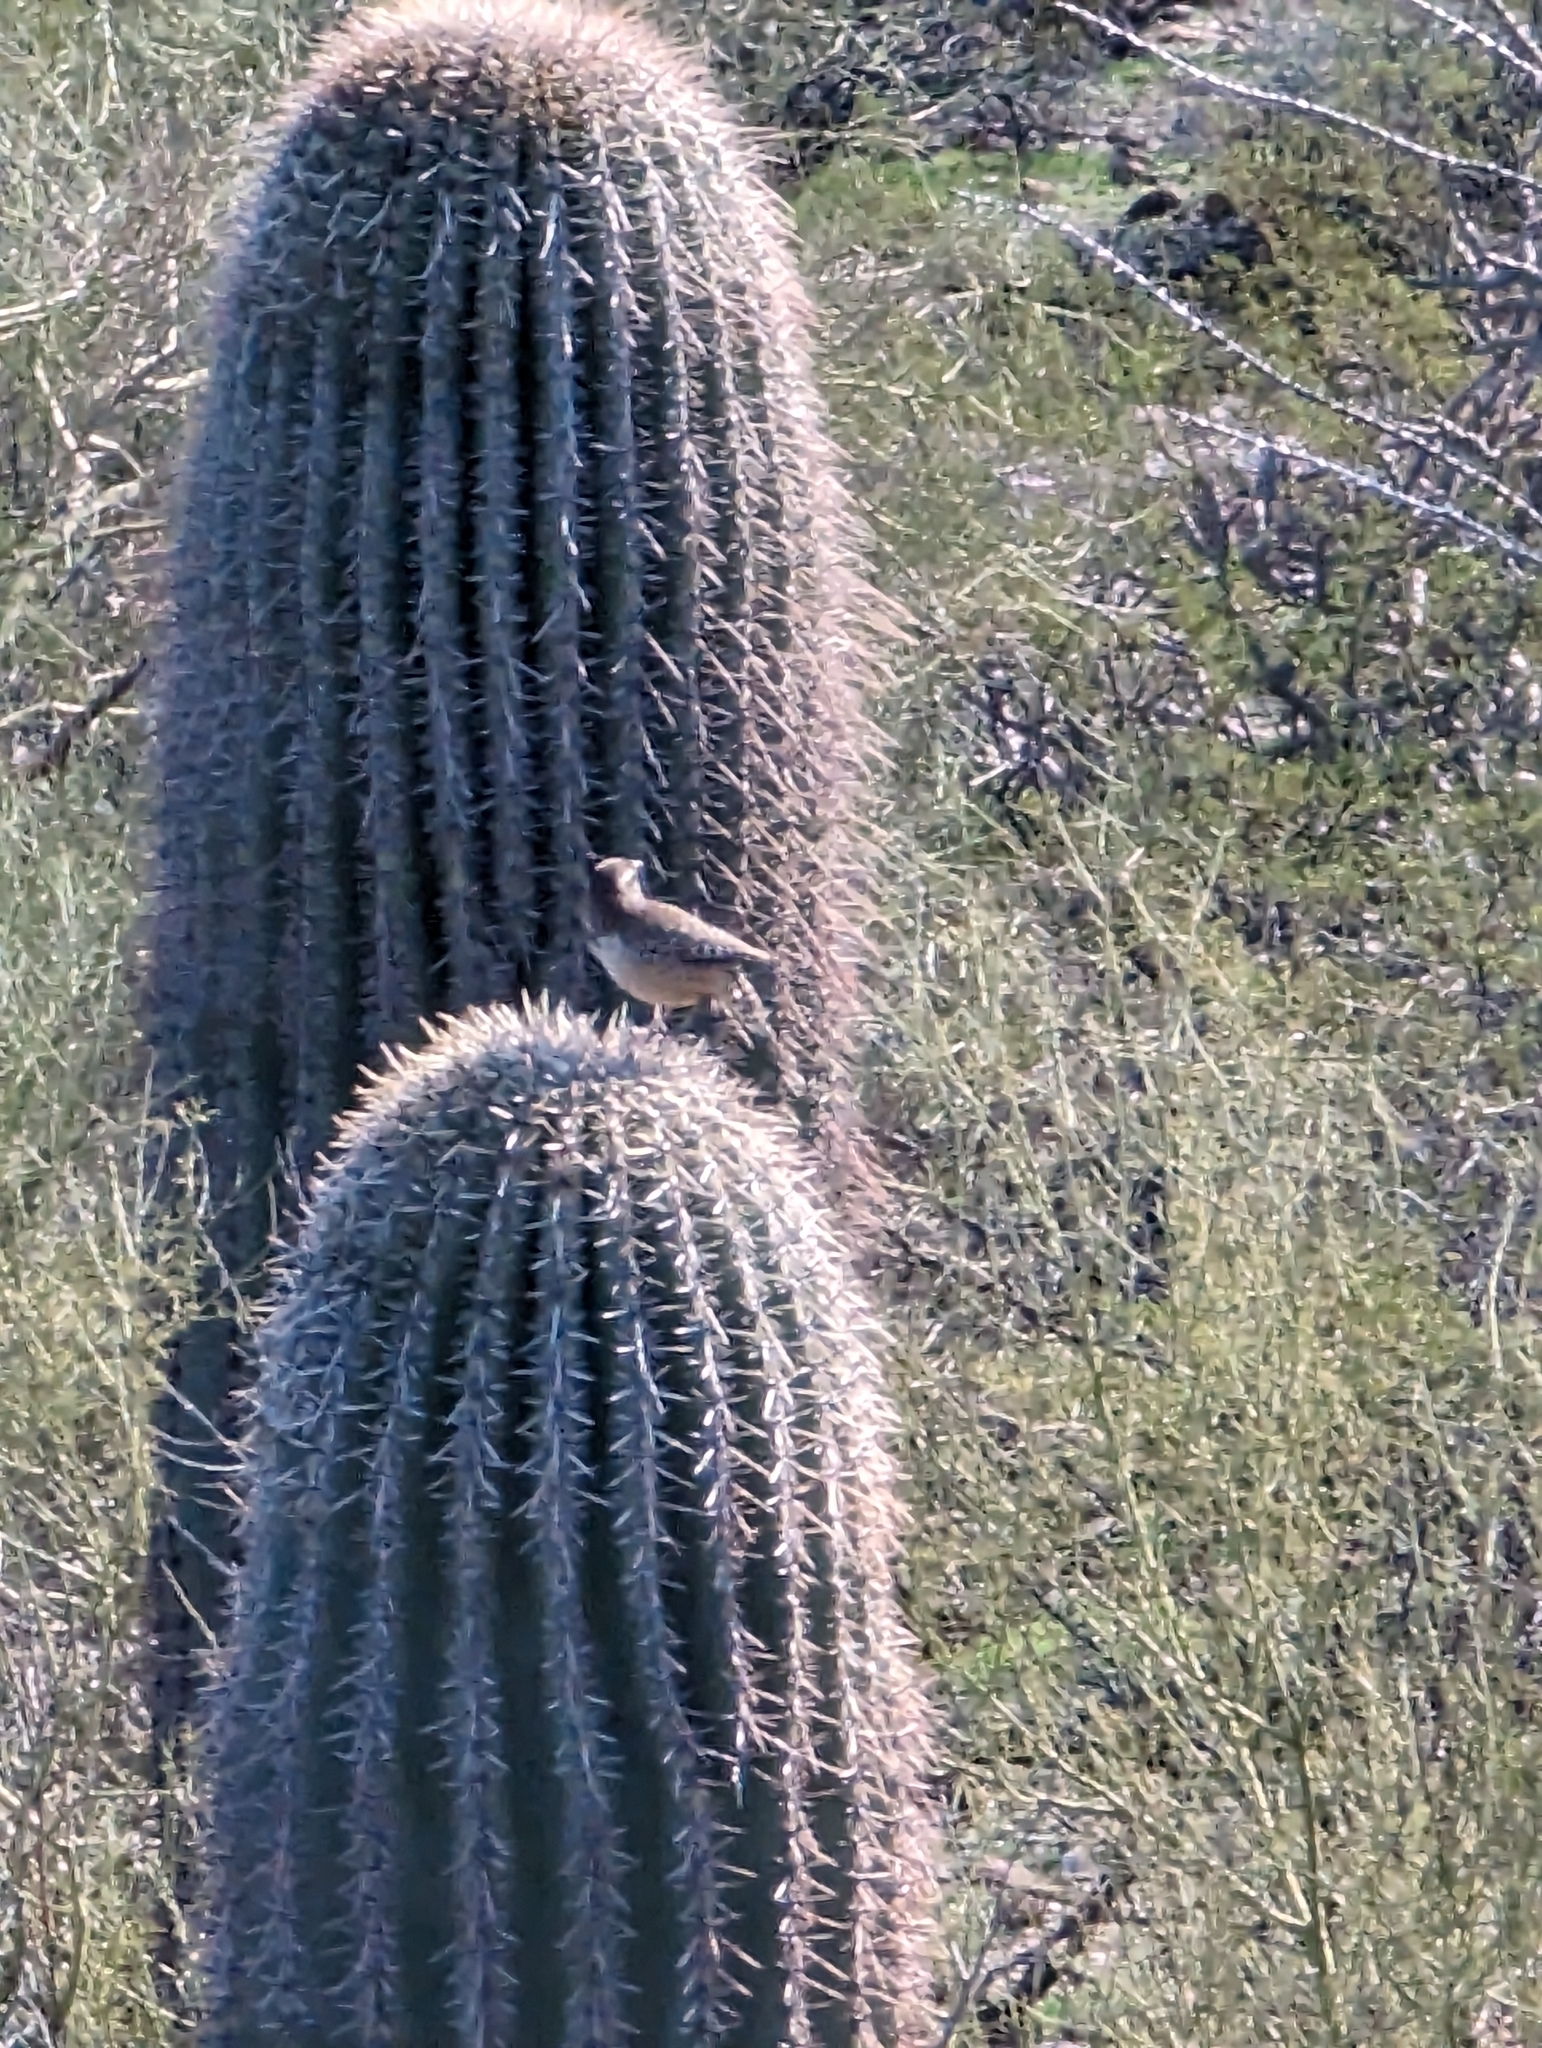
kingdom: Animalia
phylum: Chordata
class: Aves
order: Passeriformes
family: Troglodytidae
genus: Campylorhynchus
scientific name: Campylorhynchus brunneicapillus
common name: Cactus wren
